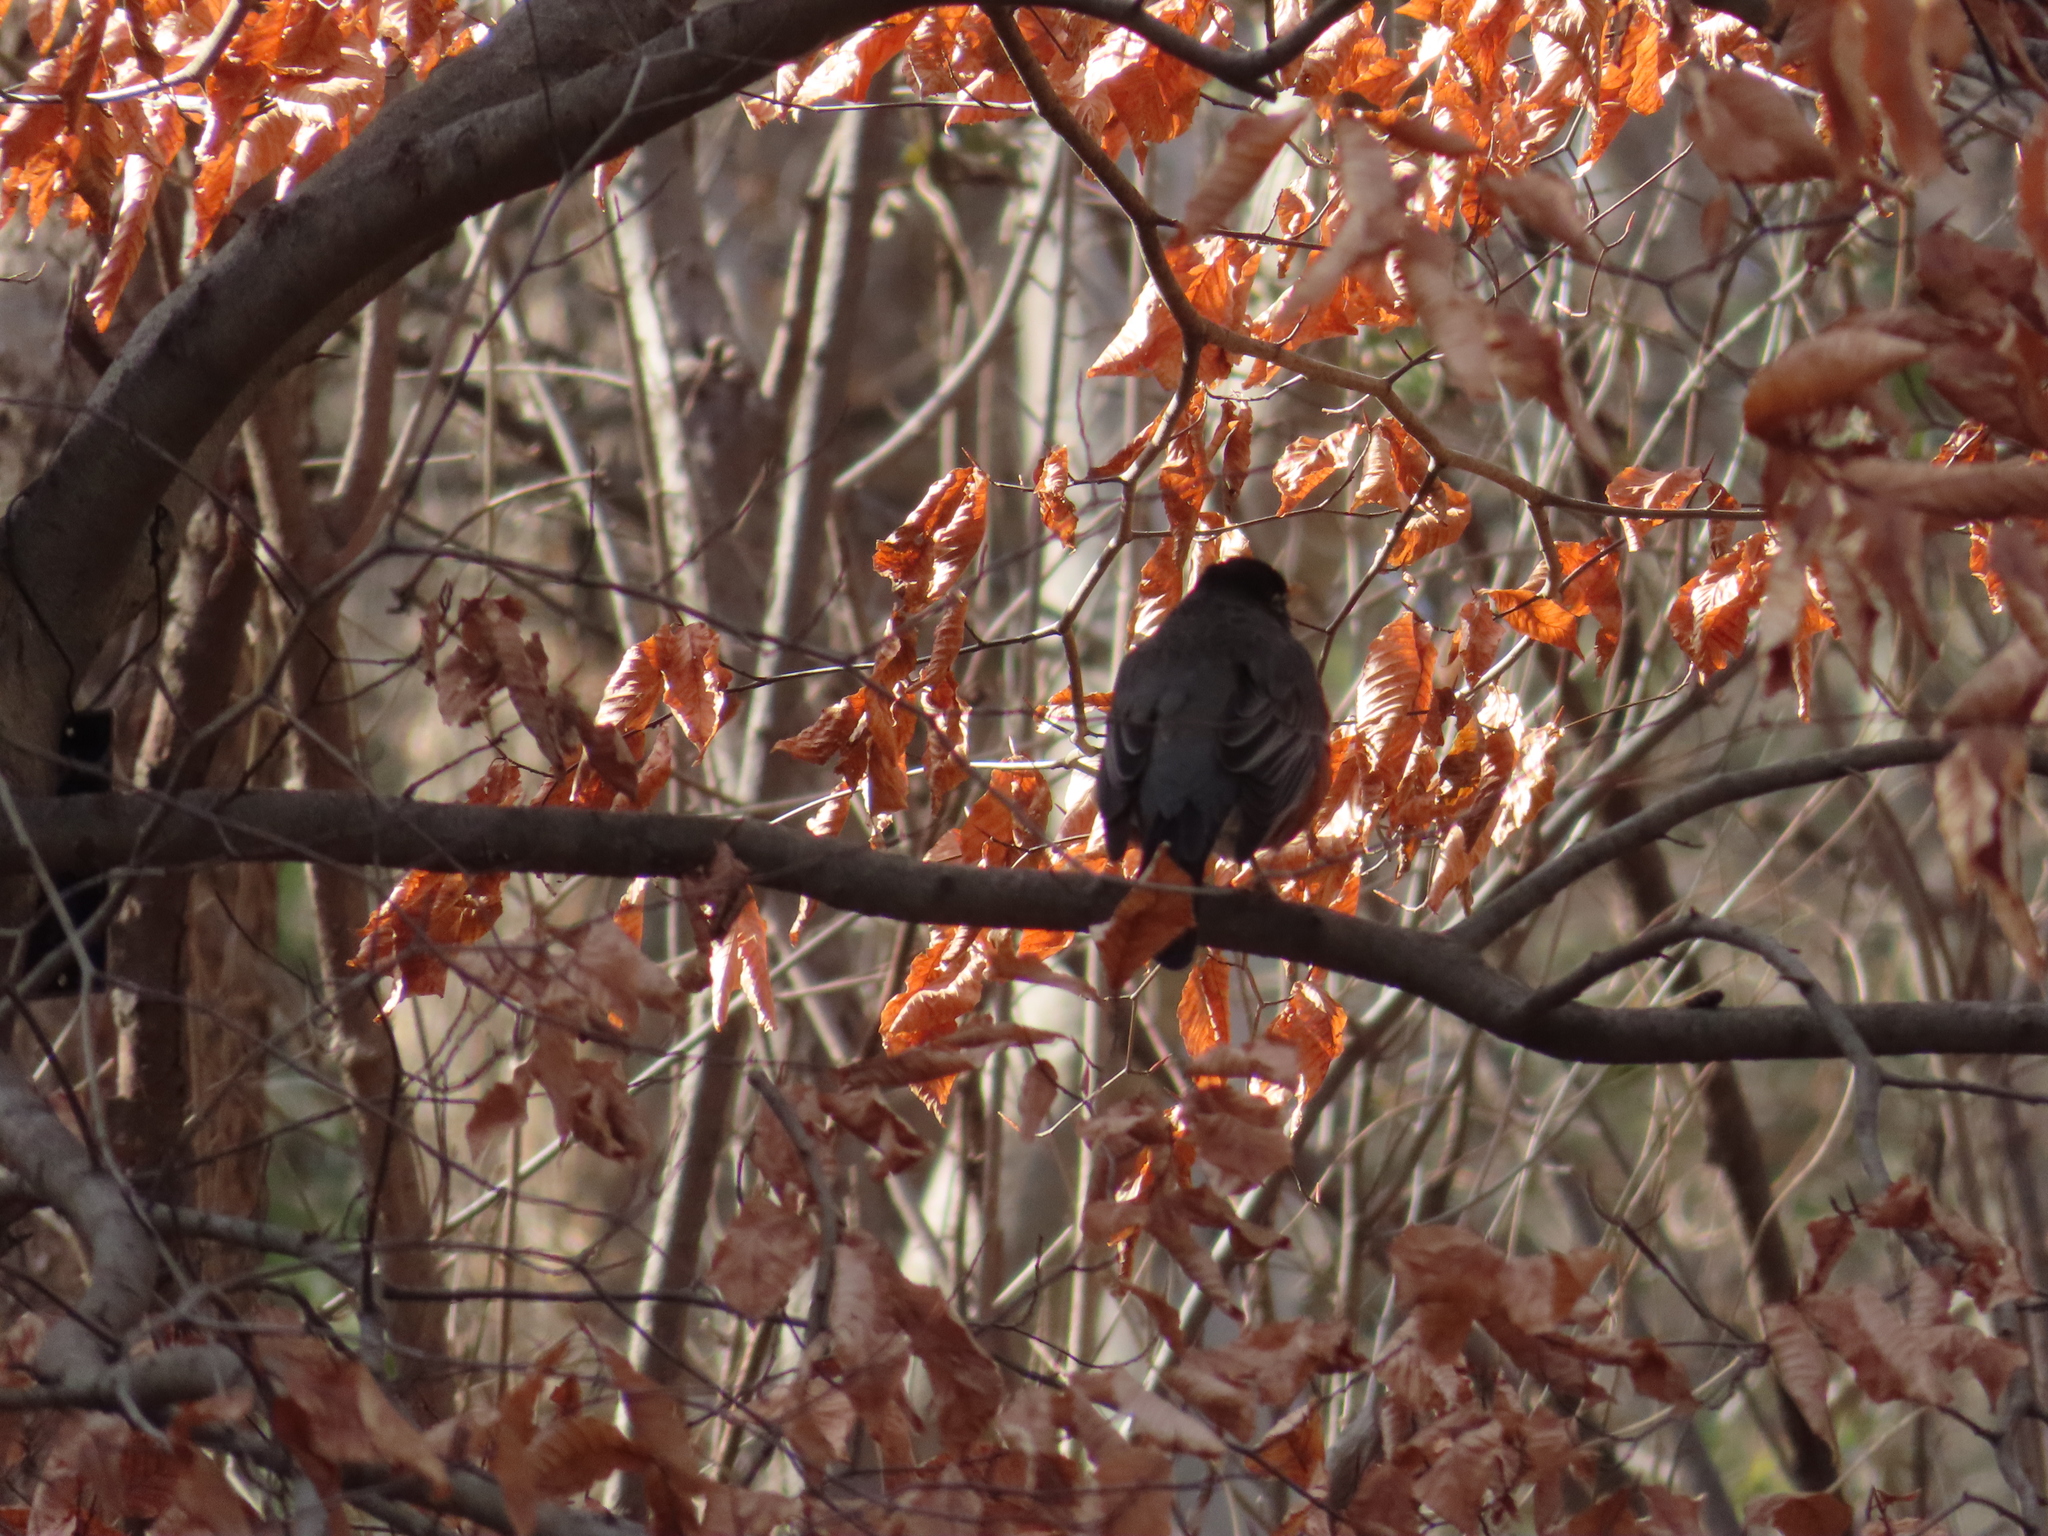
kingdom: Animalia
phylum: Chordata
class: Aves
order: Passeriformes
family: Turdidae
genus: Turdus
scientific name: Turdus migratorius
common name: American robin
